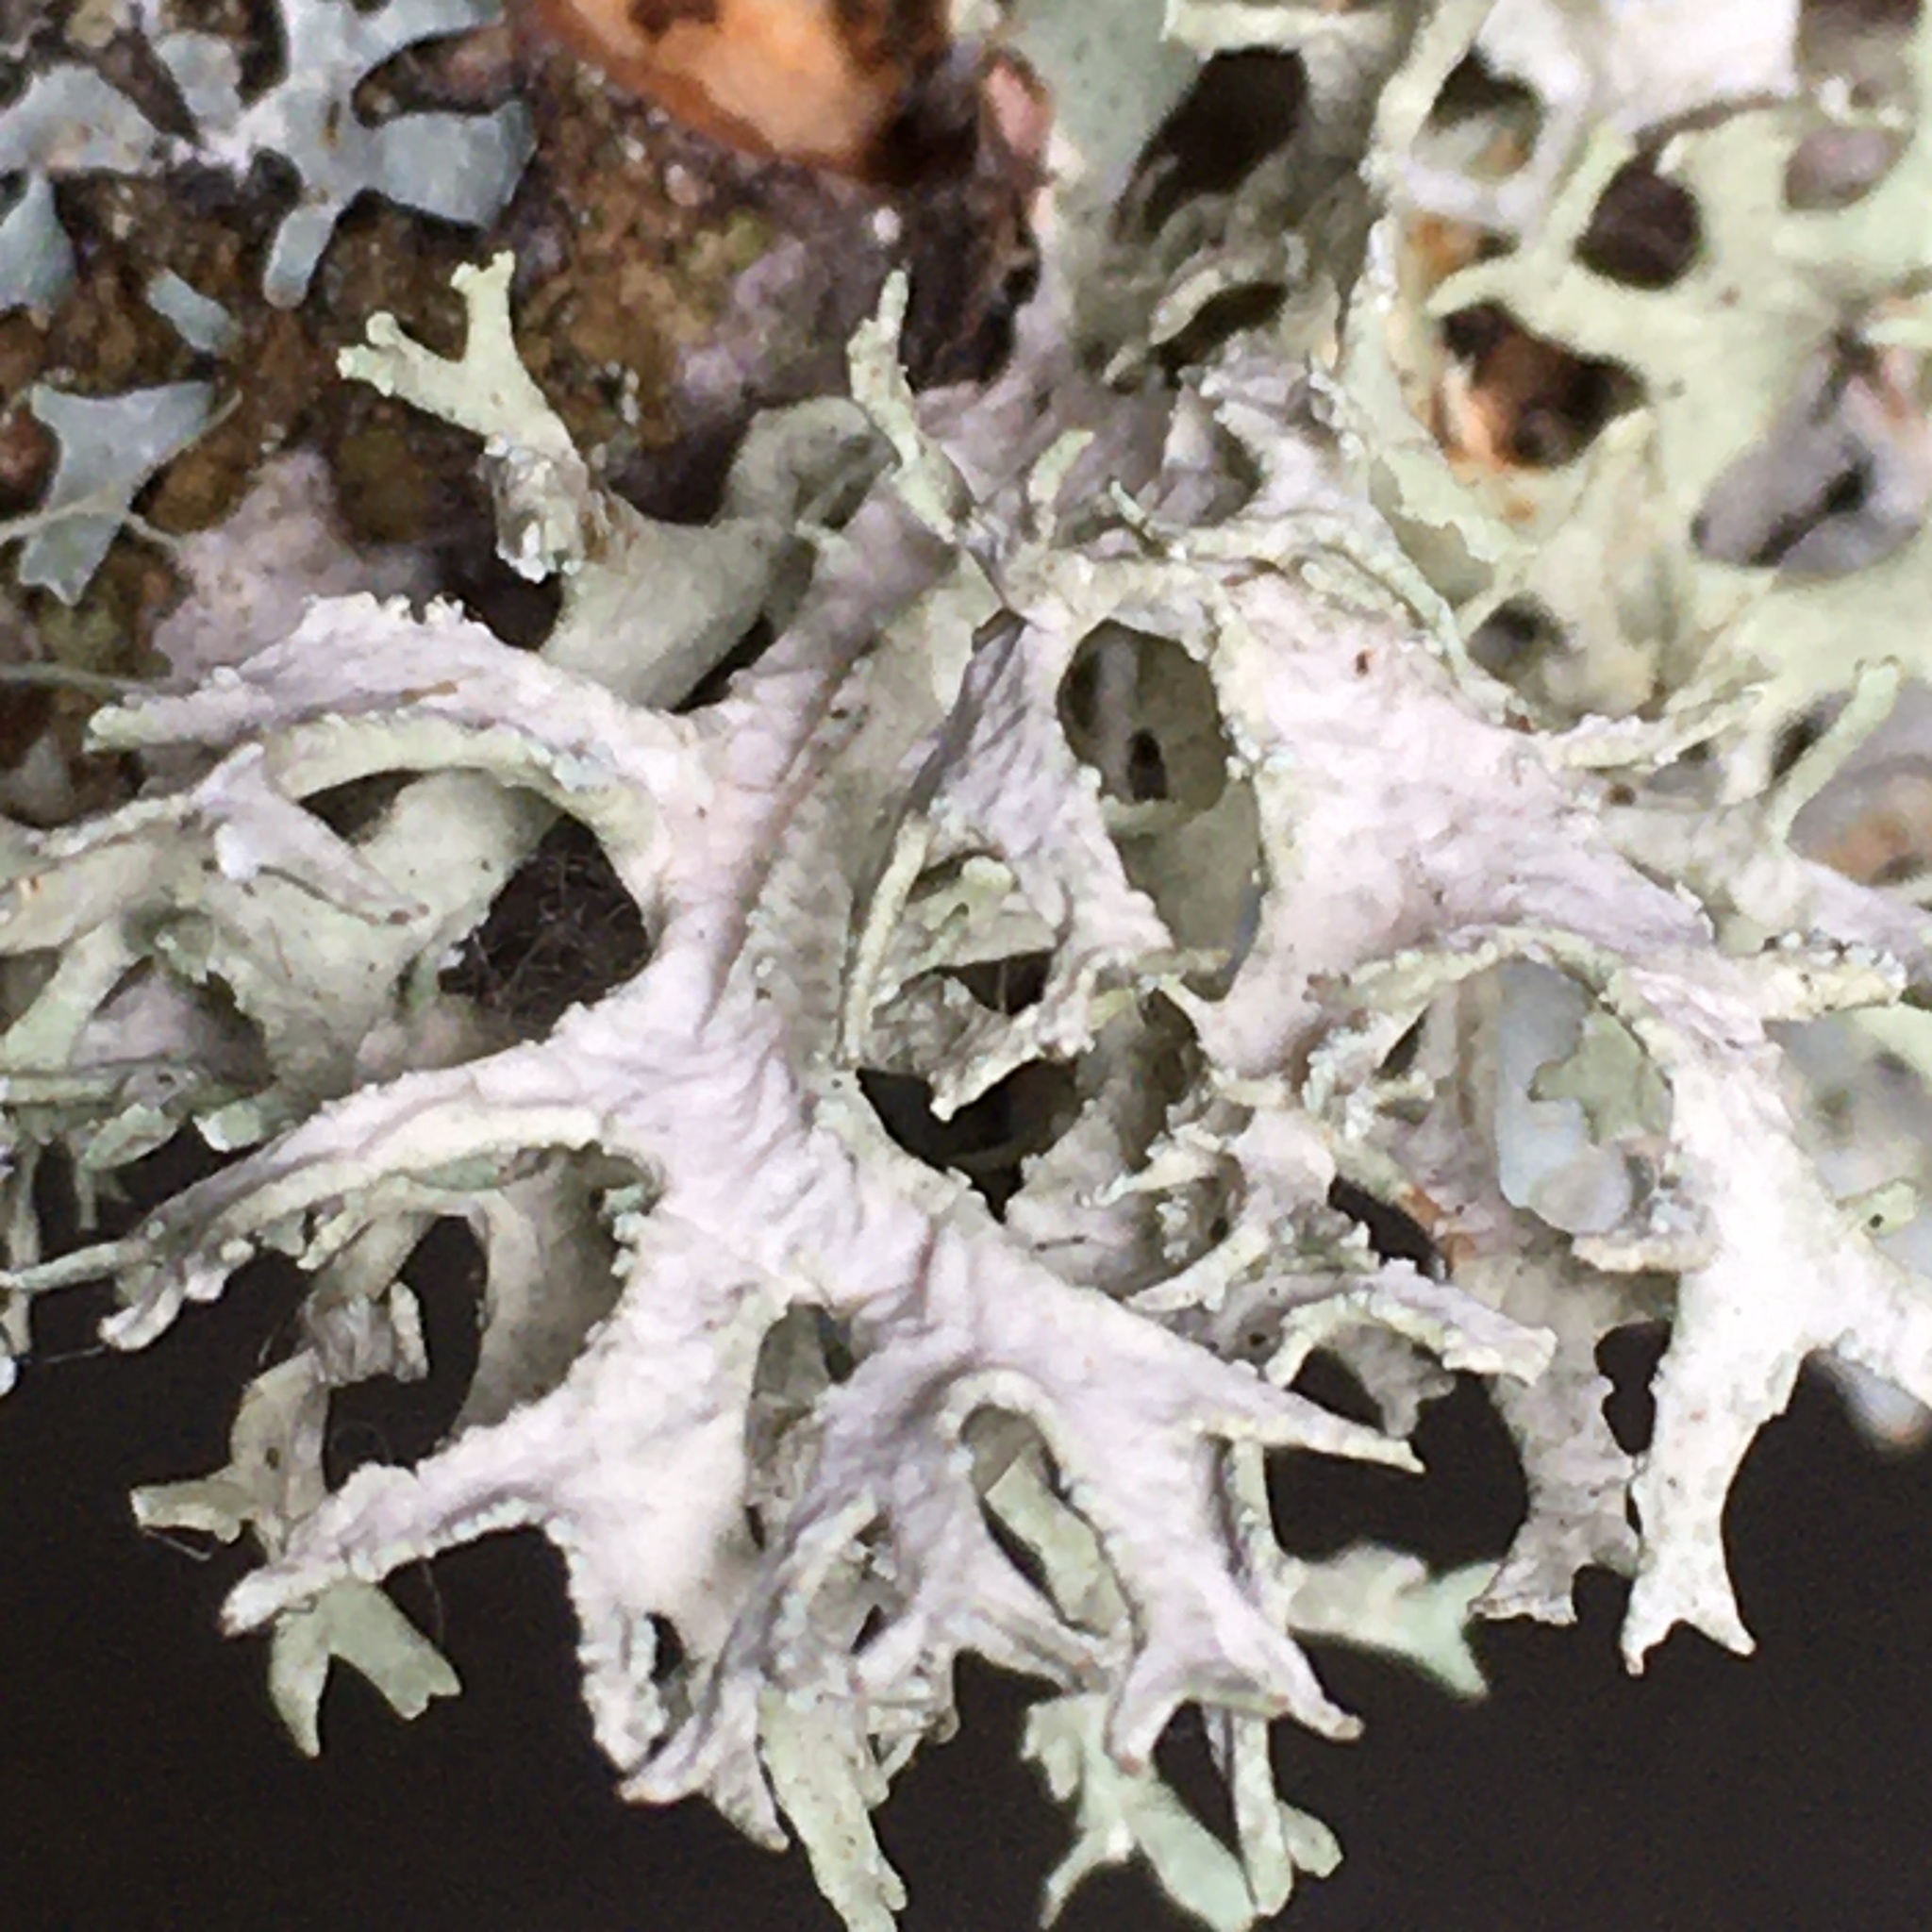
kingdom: Fungi
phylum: Ascomycota
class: Lecanoromycetes
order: Lecanorales
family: Parmeliaceae
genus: Evernia
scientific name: Evernia prunastri
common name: Oak moss
